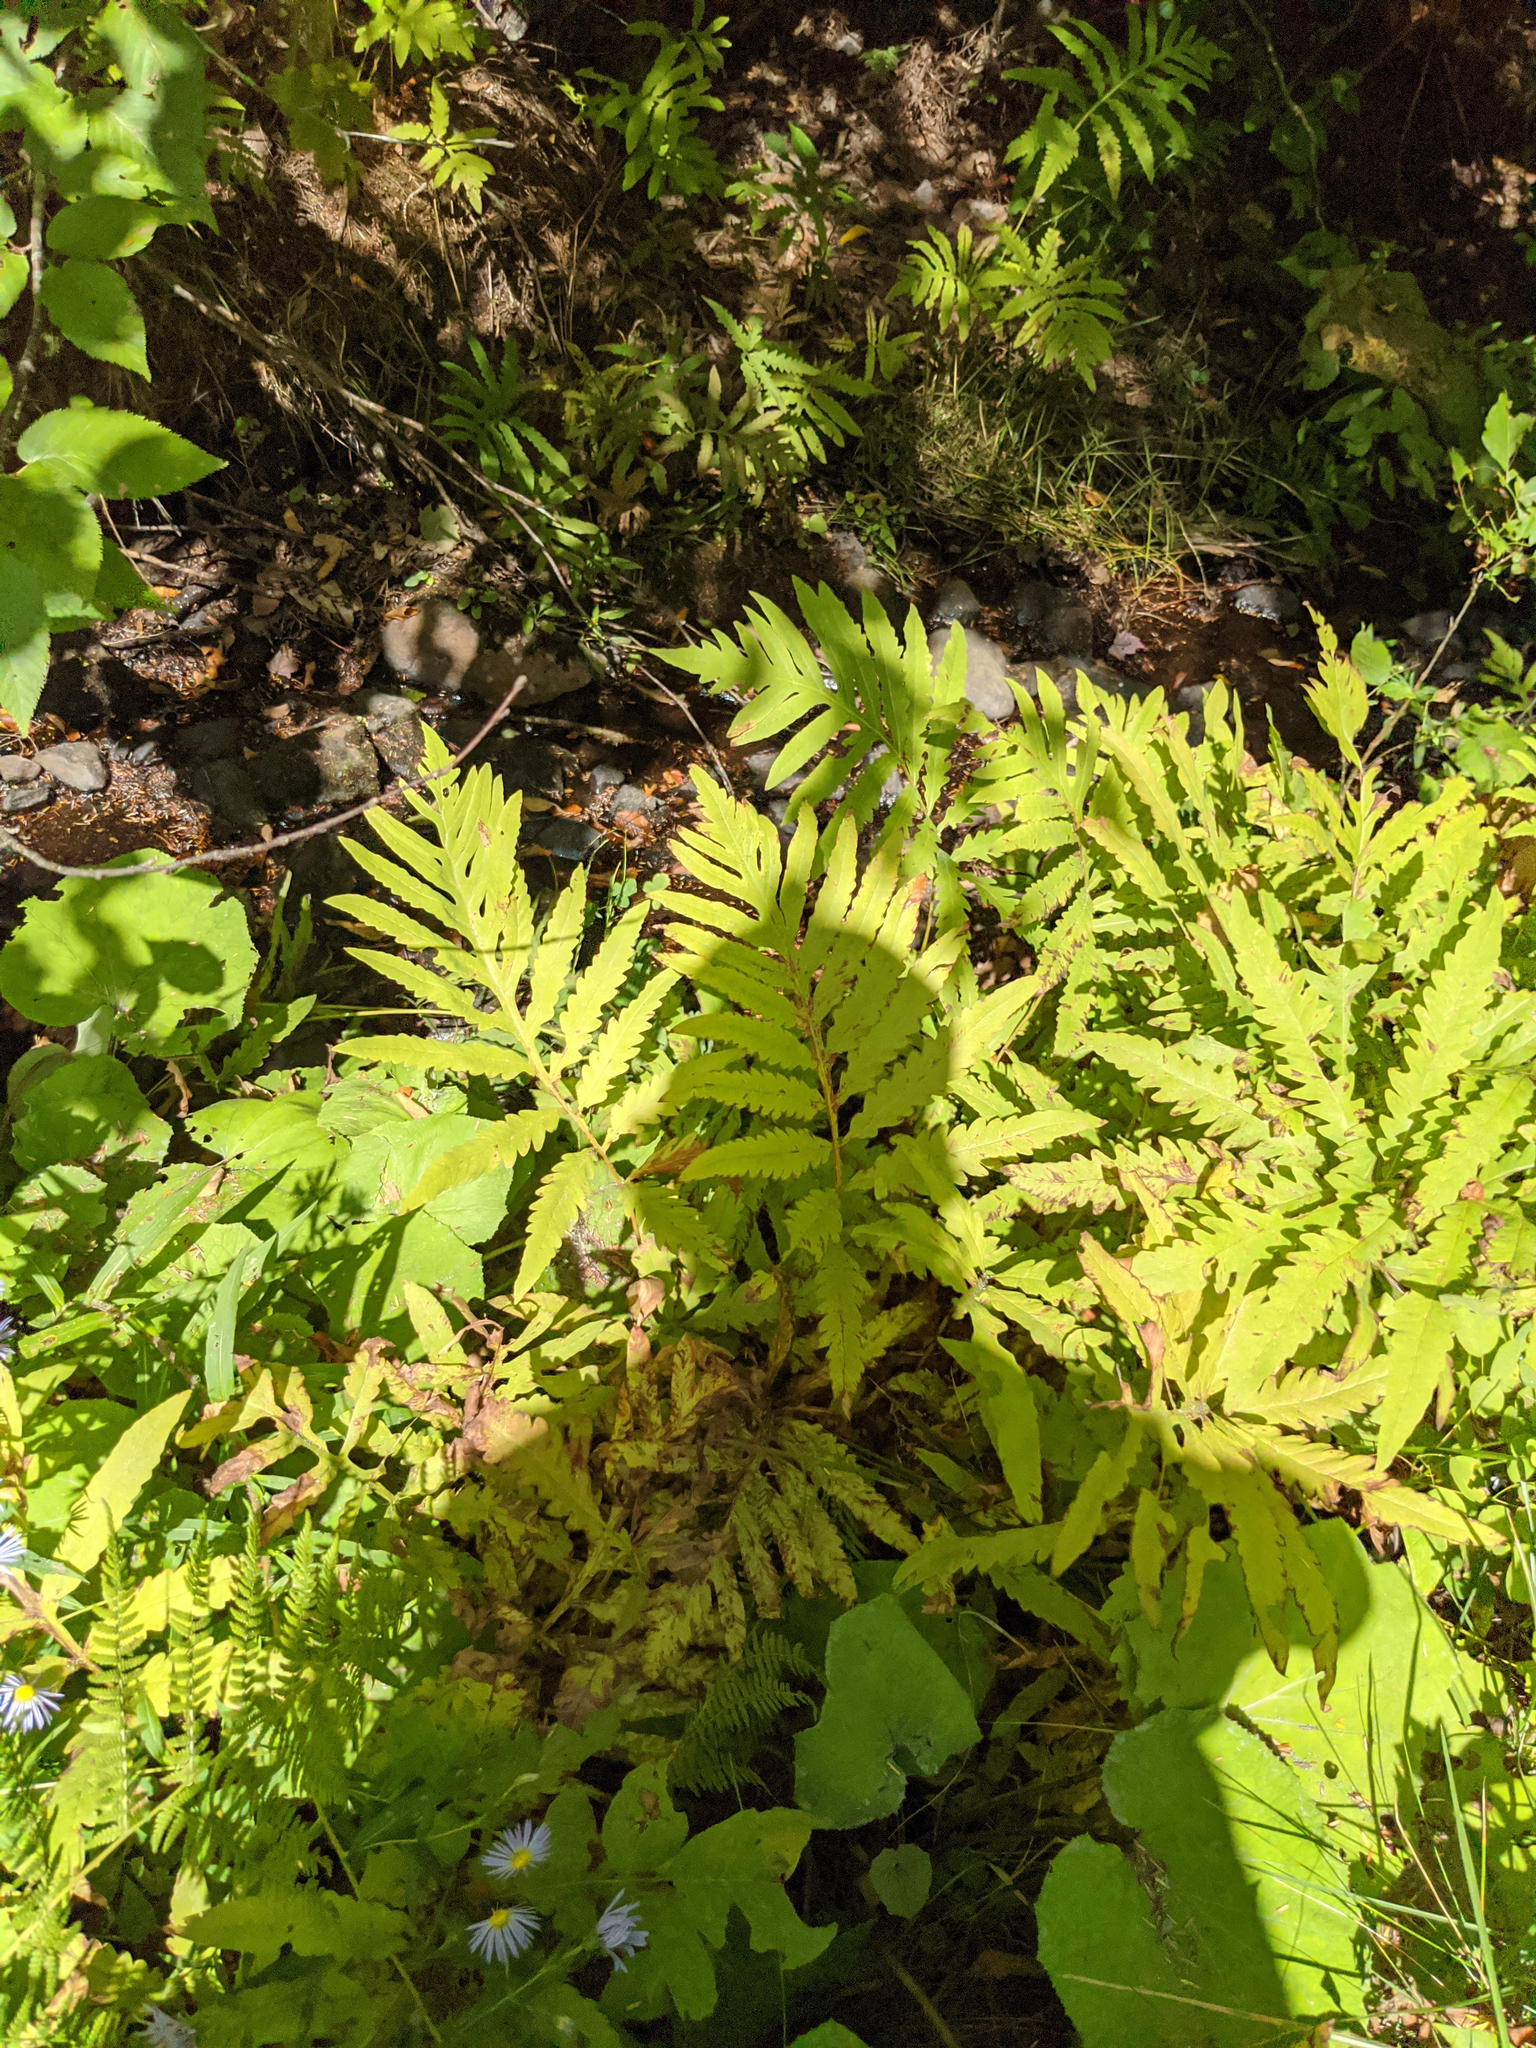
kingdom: Plantae
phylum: Tracheophyta
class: Polypodiopsida
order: Polypodiales
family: Onocleaceae
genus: Onoclea
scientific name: Onoclea sensibilis
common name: Sensitive fern
